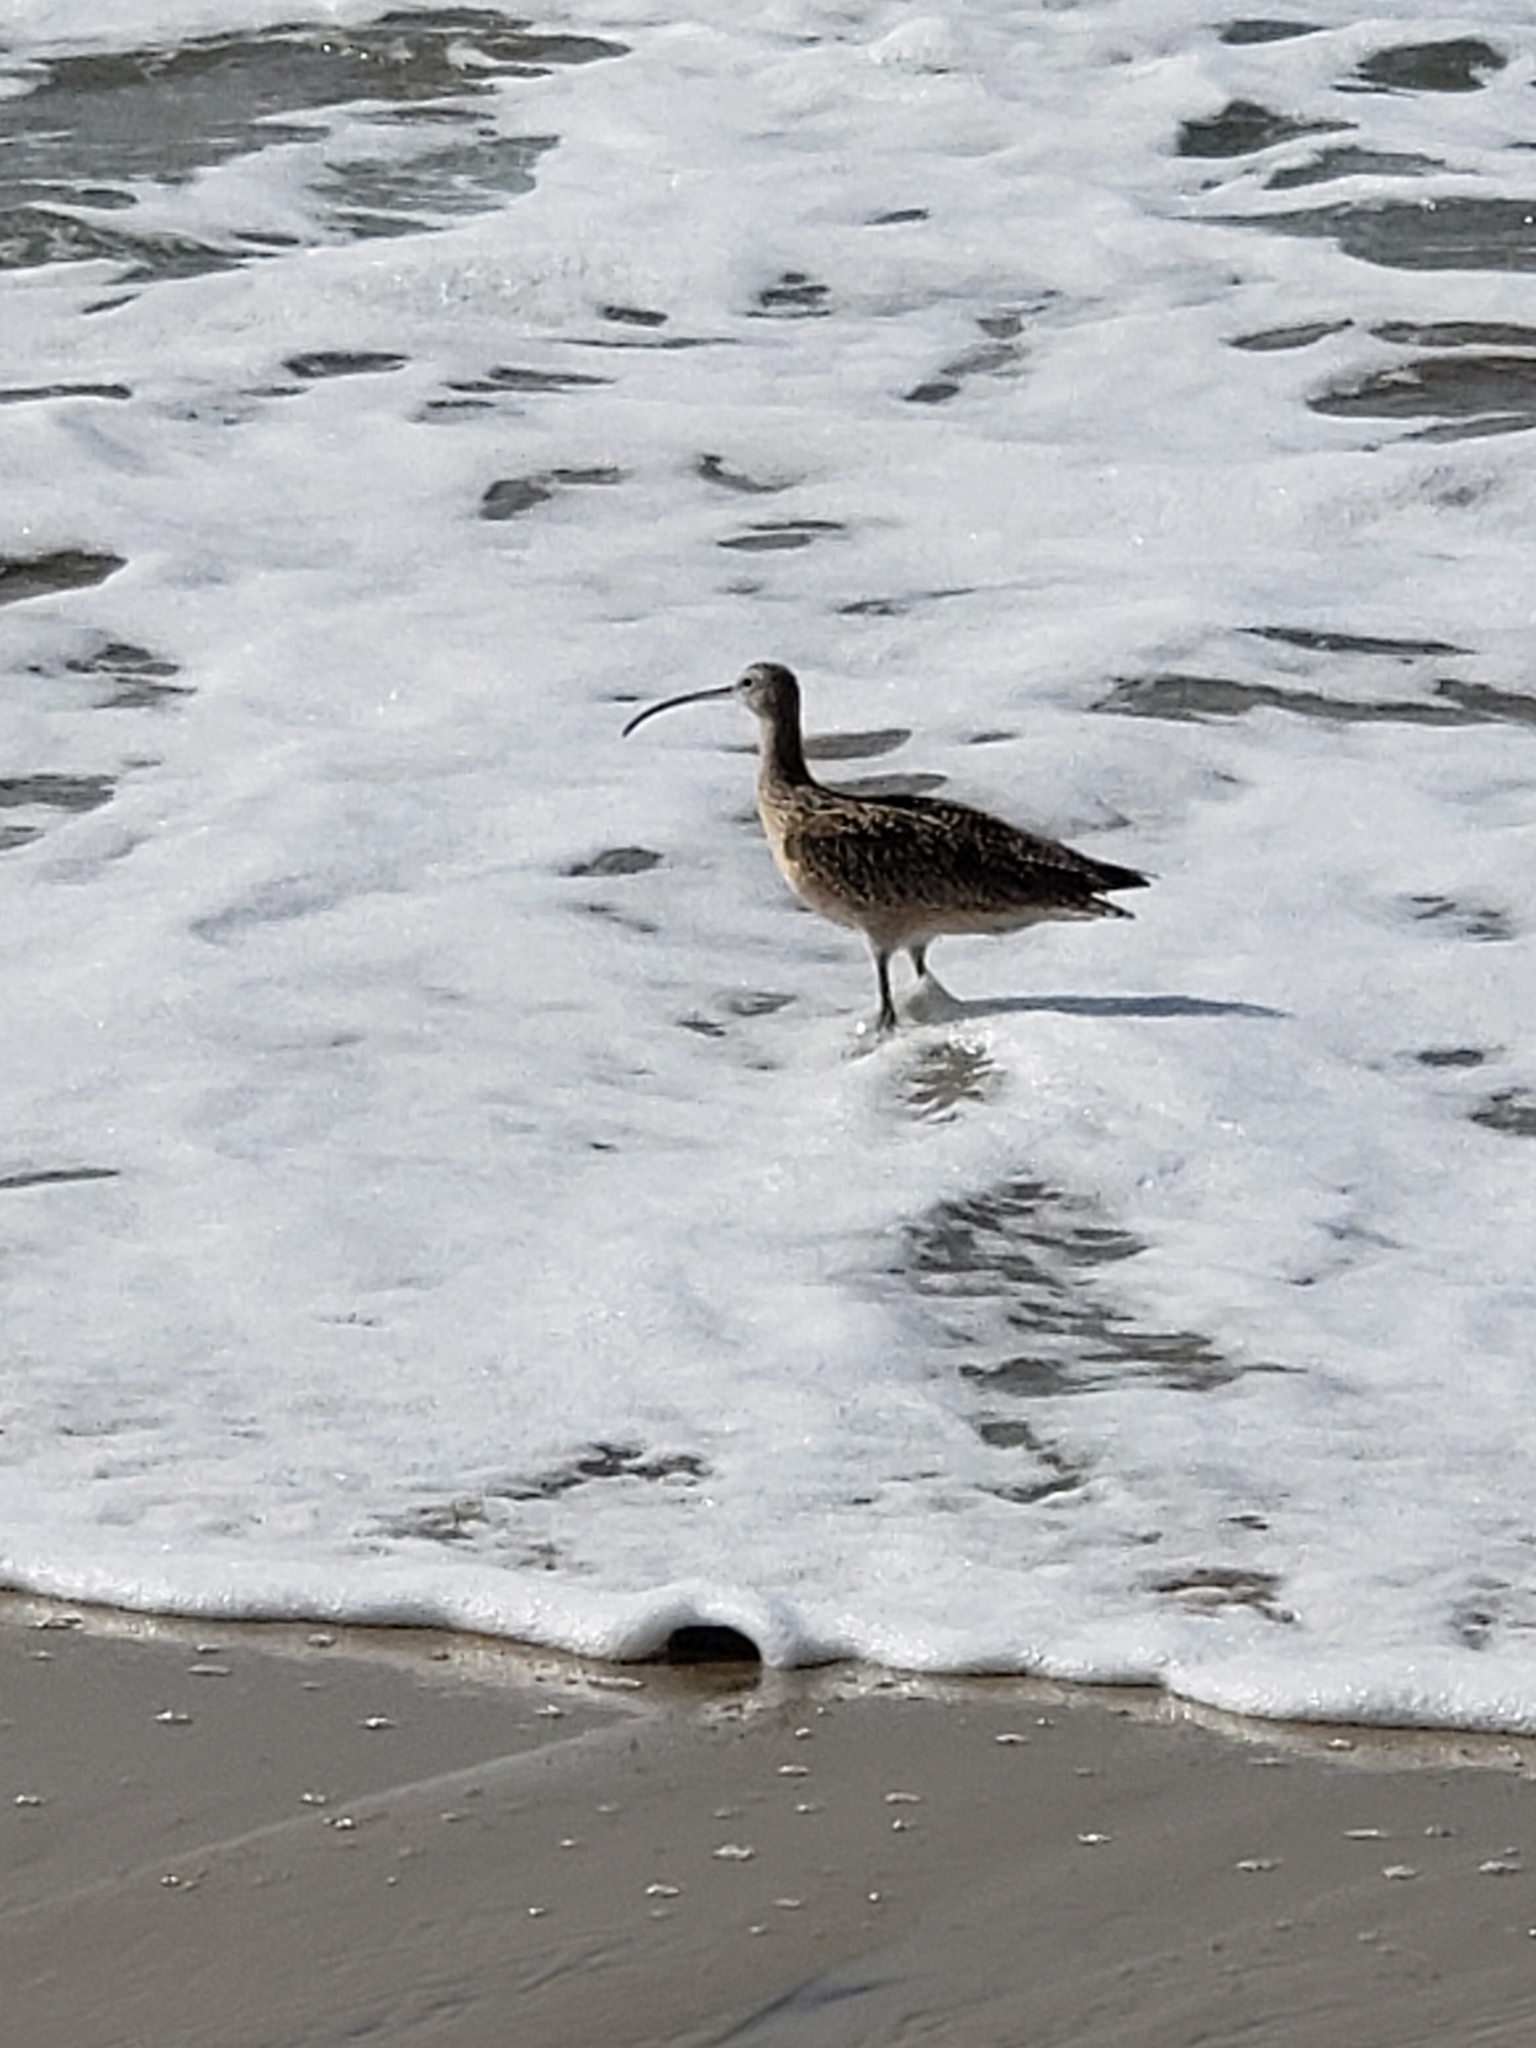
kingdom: Animalia
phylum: Chordata
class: Aves
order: Charadriiformes
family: Scolopacidae
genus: Numenius
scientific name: Numenius americanus
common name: Long-billed curlew
